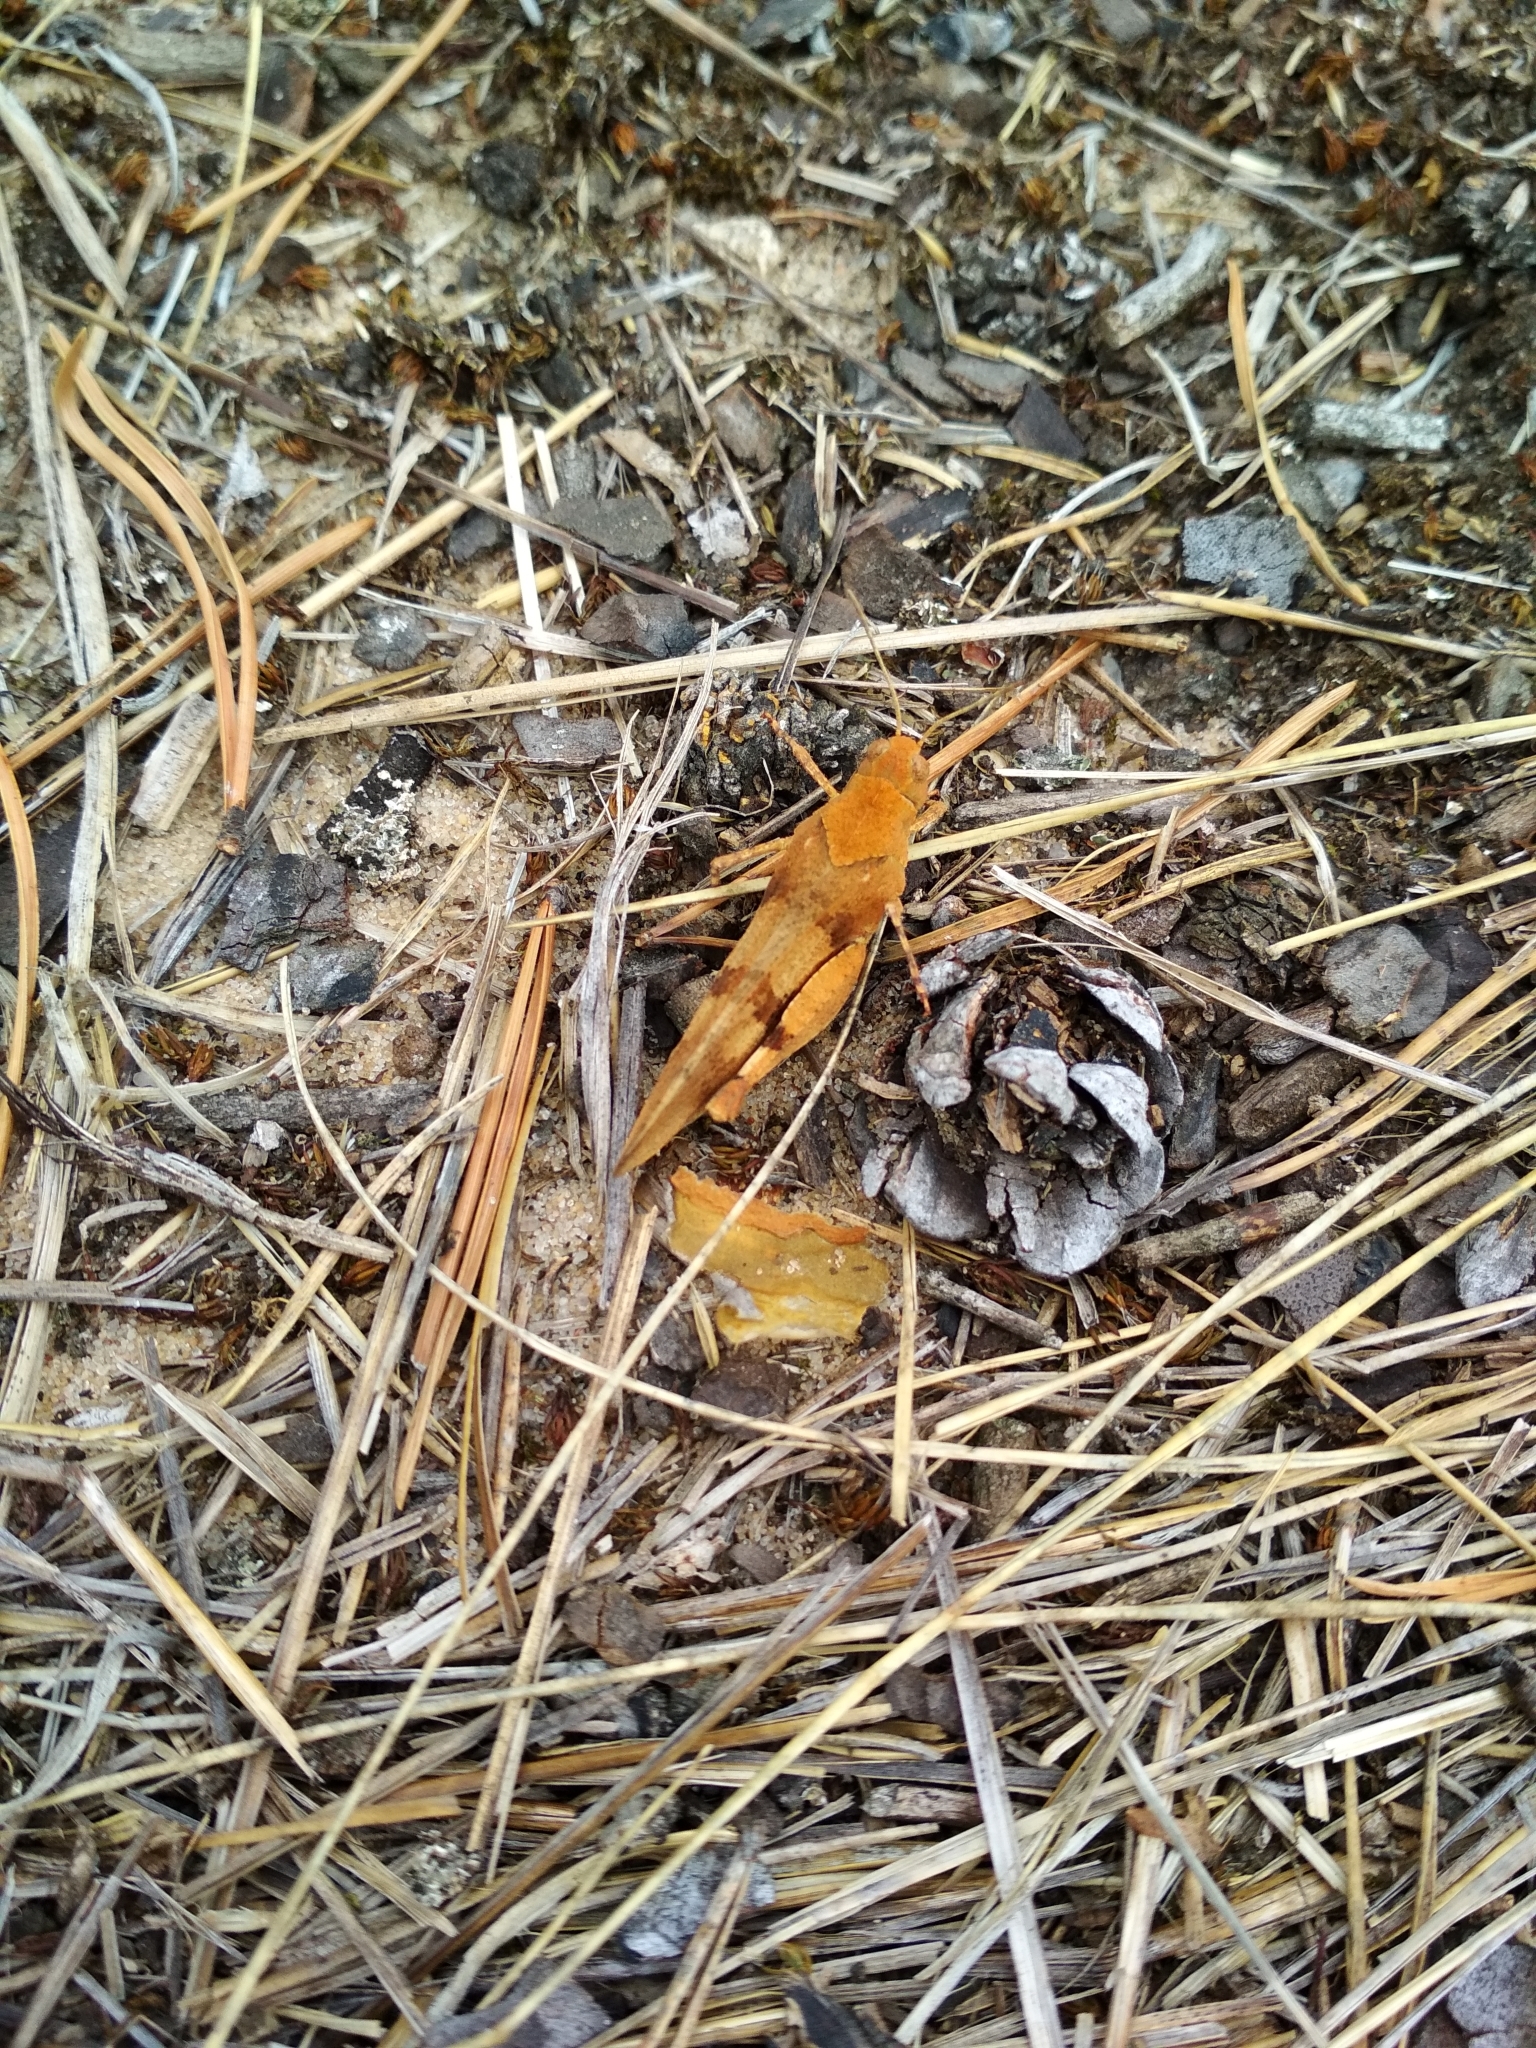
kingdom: Animalia
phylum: Arthropoda
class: Insecta
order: Orthoptera
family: Acrididae
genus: Oedipoda
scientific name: Oedipoda caerulescens
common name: Blue-winged grasshopper
